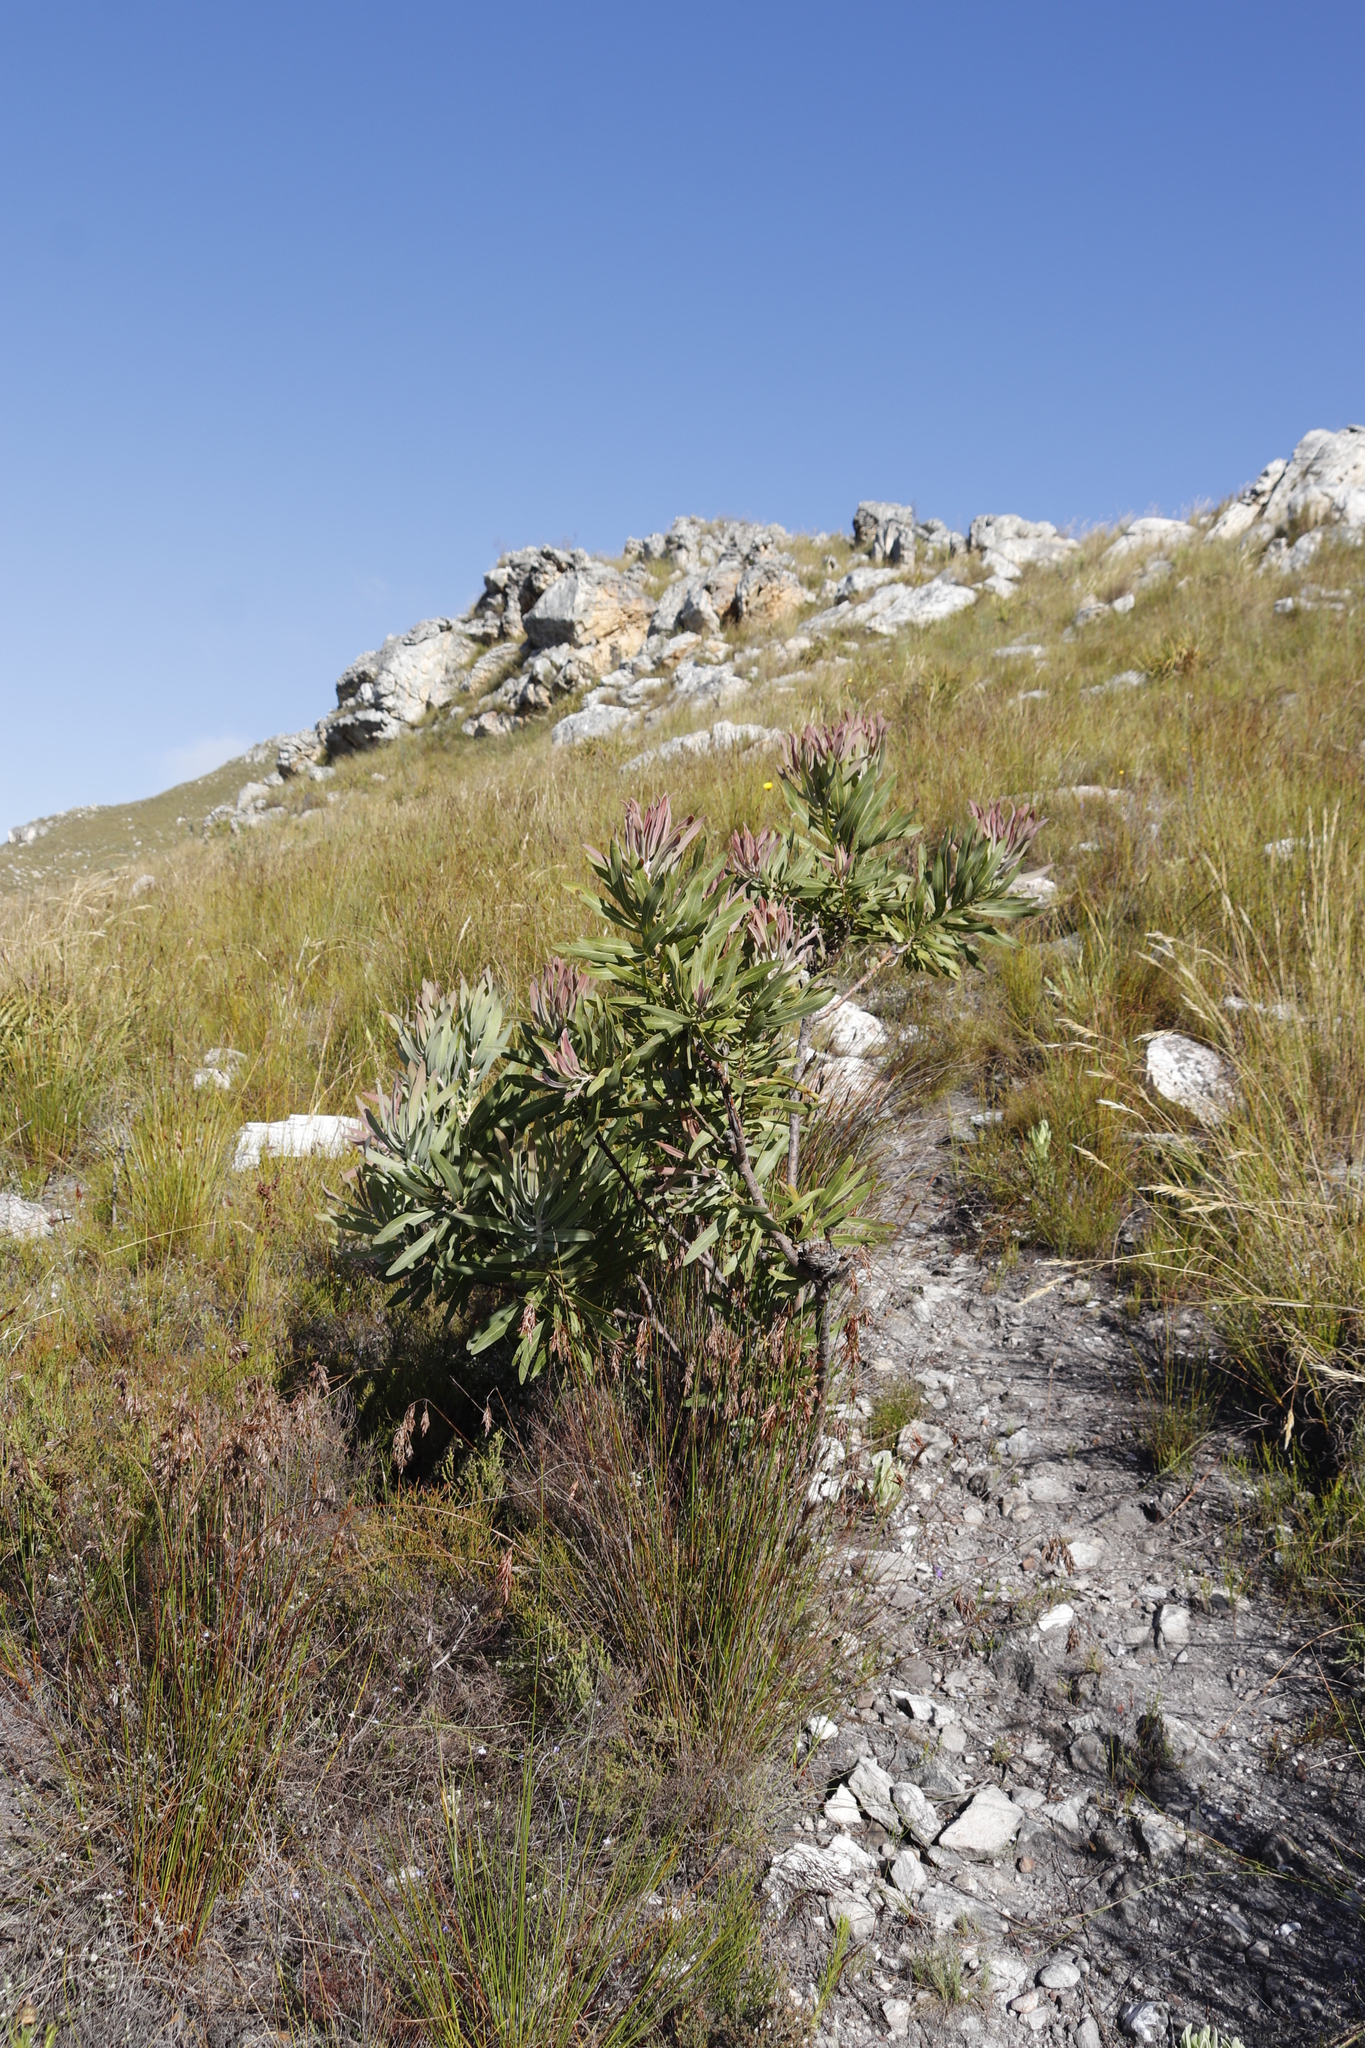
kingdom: Plantae
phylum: Tracheophyta
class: Magnoliopsida
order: Proteales
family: Proteaceae
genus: Protea
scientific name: Protea neriifolia
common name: Blue sugarbush
